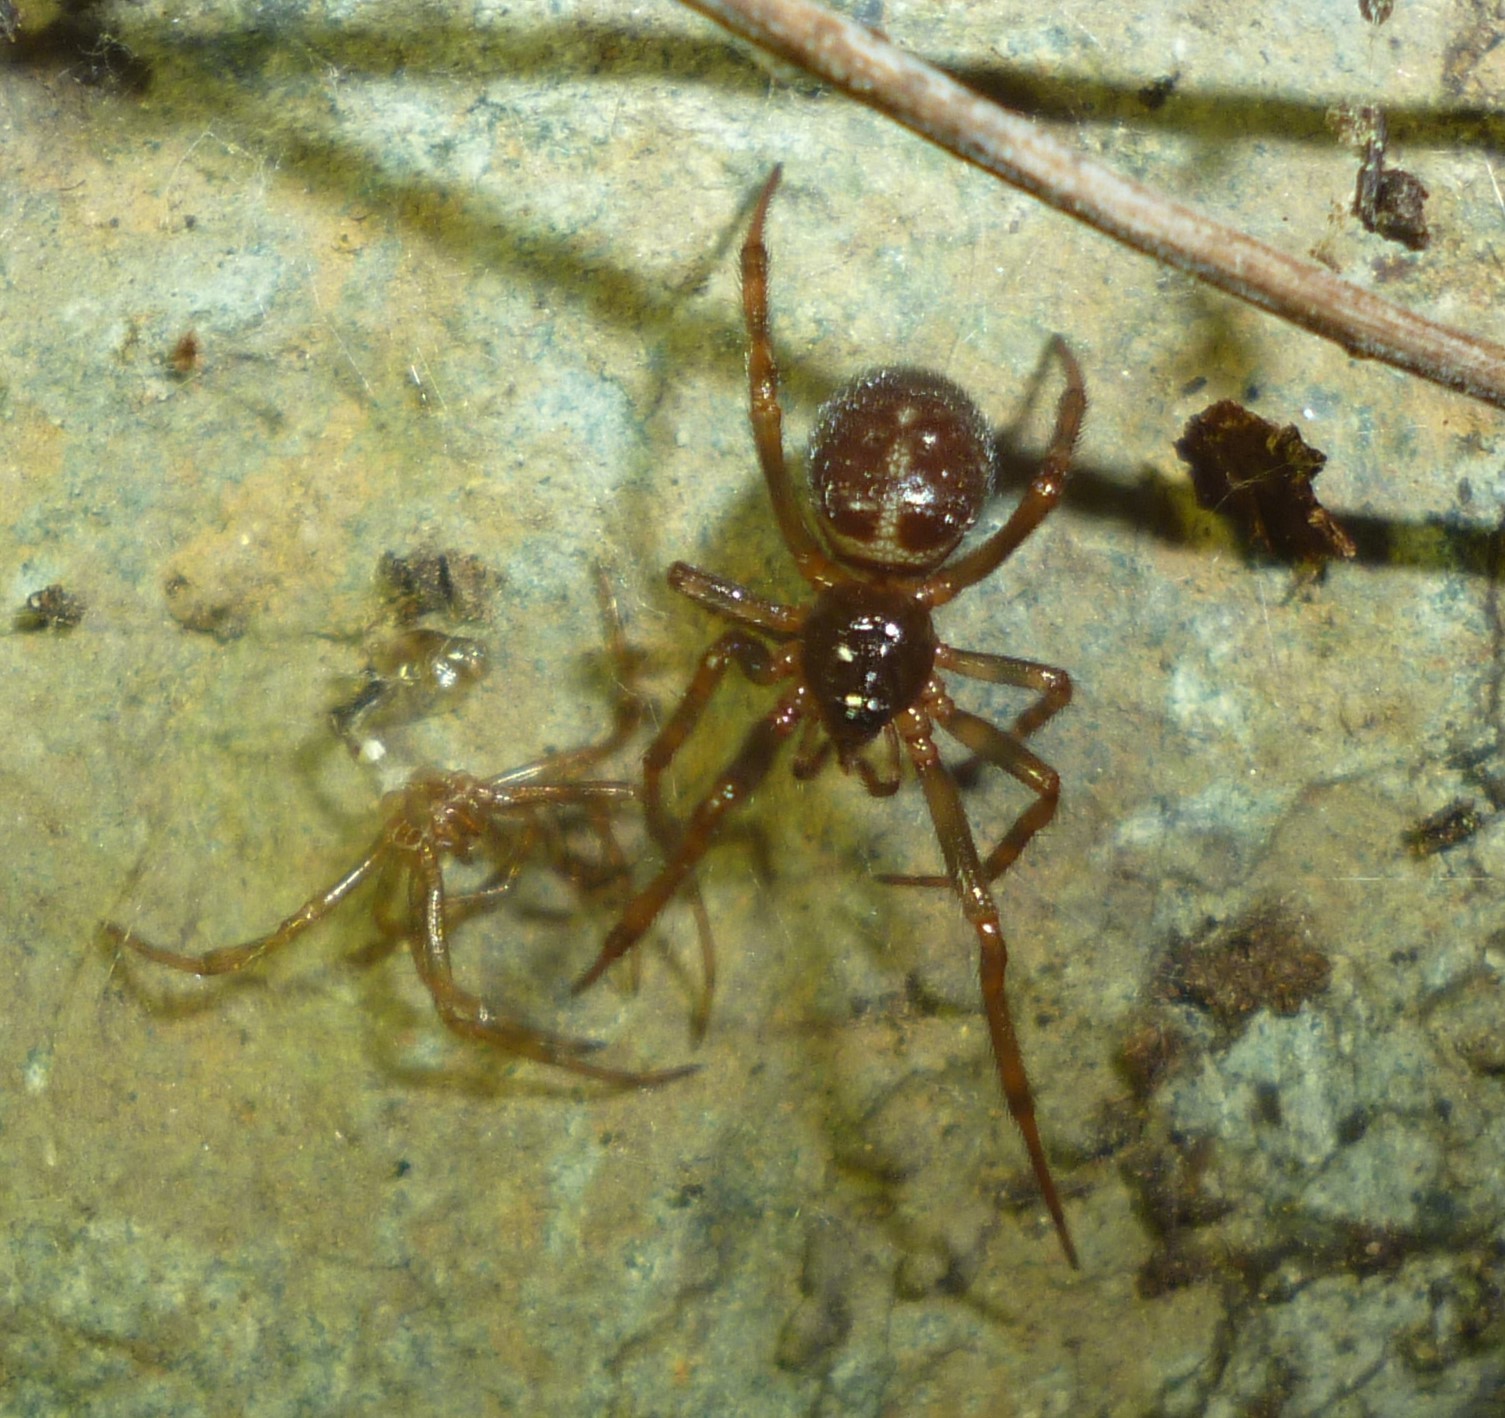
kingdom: Animalia
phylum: Arthropoda
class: Arachnida
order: Araneae
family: Theridiidae
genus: Steatoda
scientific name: Steatoda borealis
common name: Boreal combfoot
